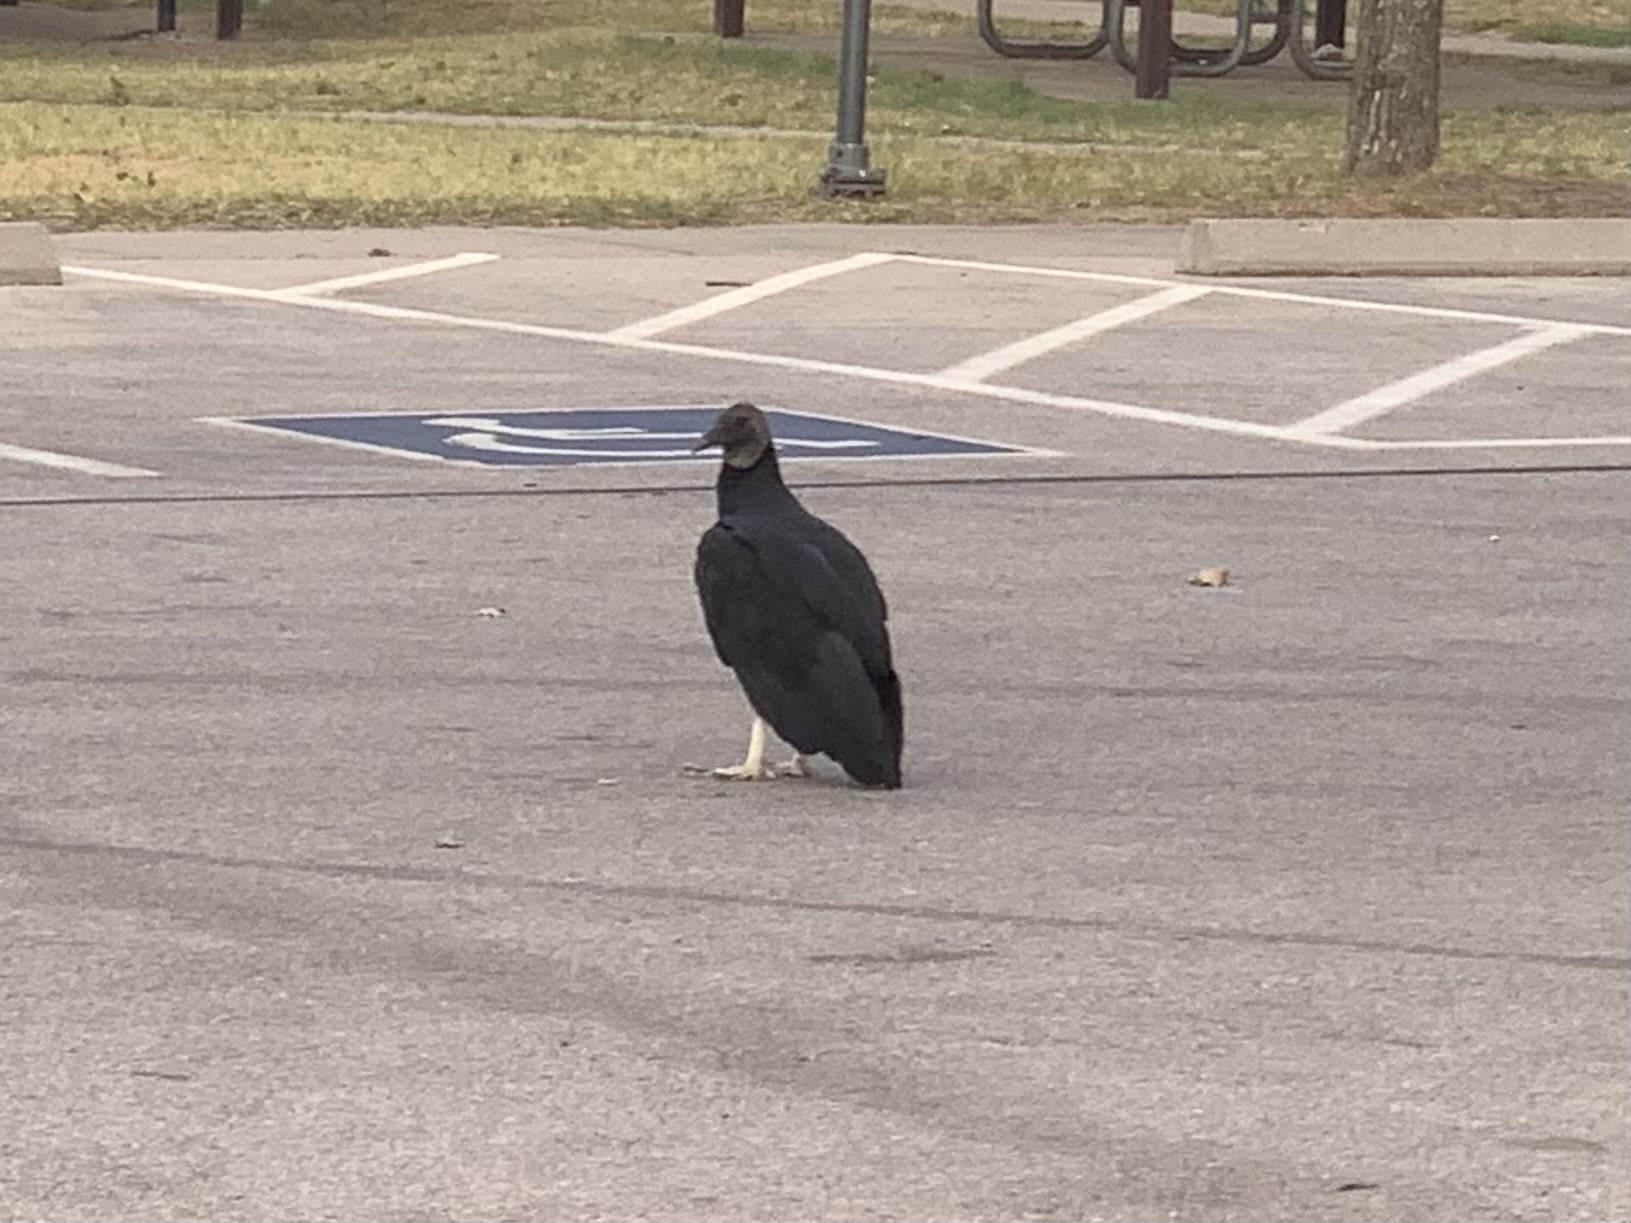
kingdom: Animalia
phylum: Chordata
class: Aves
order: Accipitriformes
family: Cathartidae
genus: Coragyps
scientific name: Coragyps atratus
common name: Black vulture
